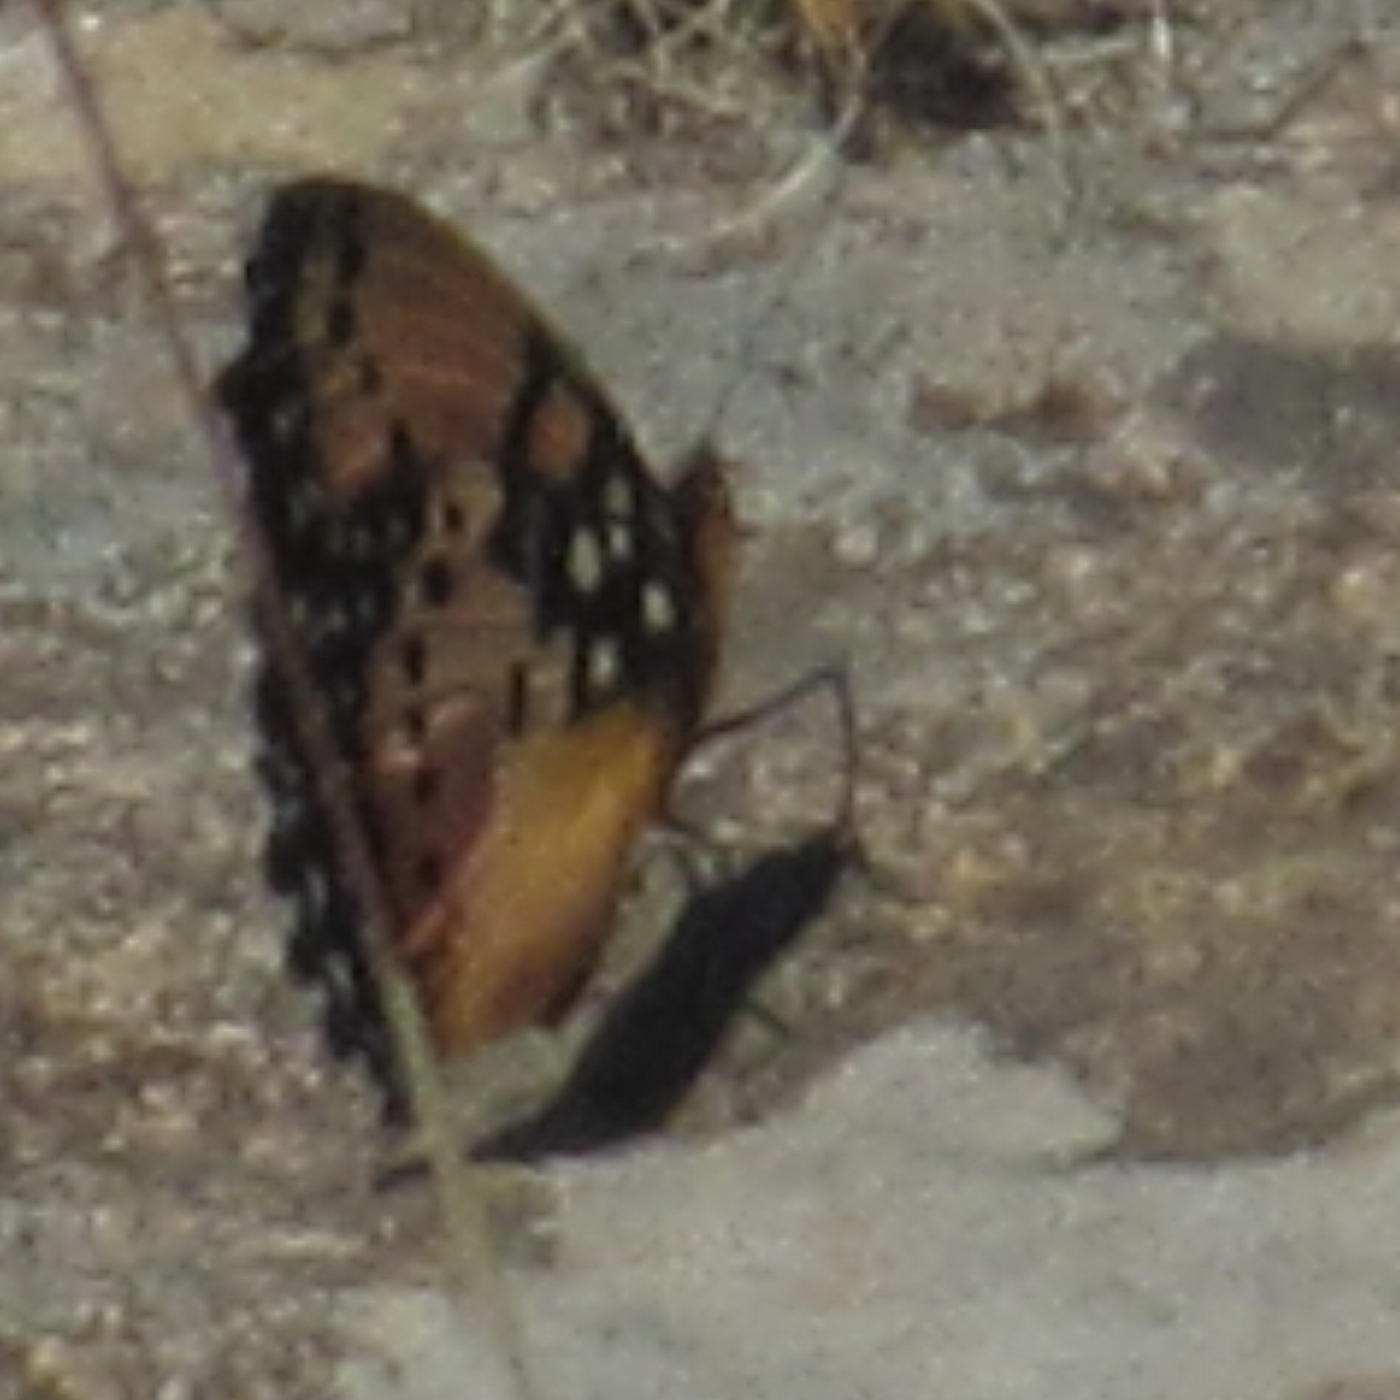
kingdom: Animalia
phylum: Arthropoda
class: Insecta
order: Lepidoptera
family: Nymphalidae
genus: Precis
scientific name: Precis octavia
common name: Gaudy commodore
